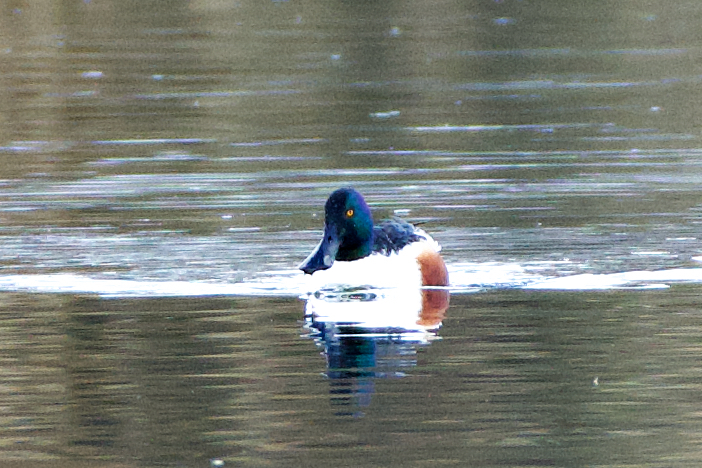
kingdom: Animalia
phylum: Chordata
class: Aves
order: Anseriformes
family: Anatidae
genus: Spatula
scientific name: Spatula clypeata
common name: Northern shoveler
